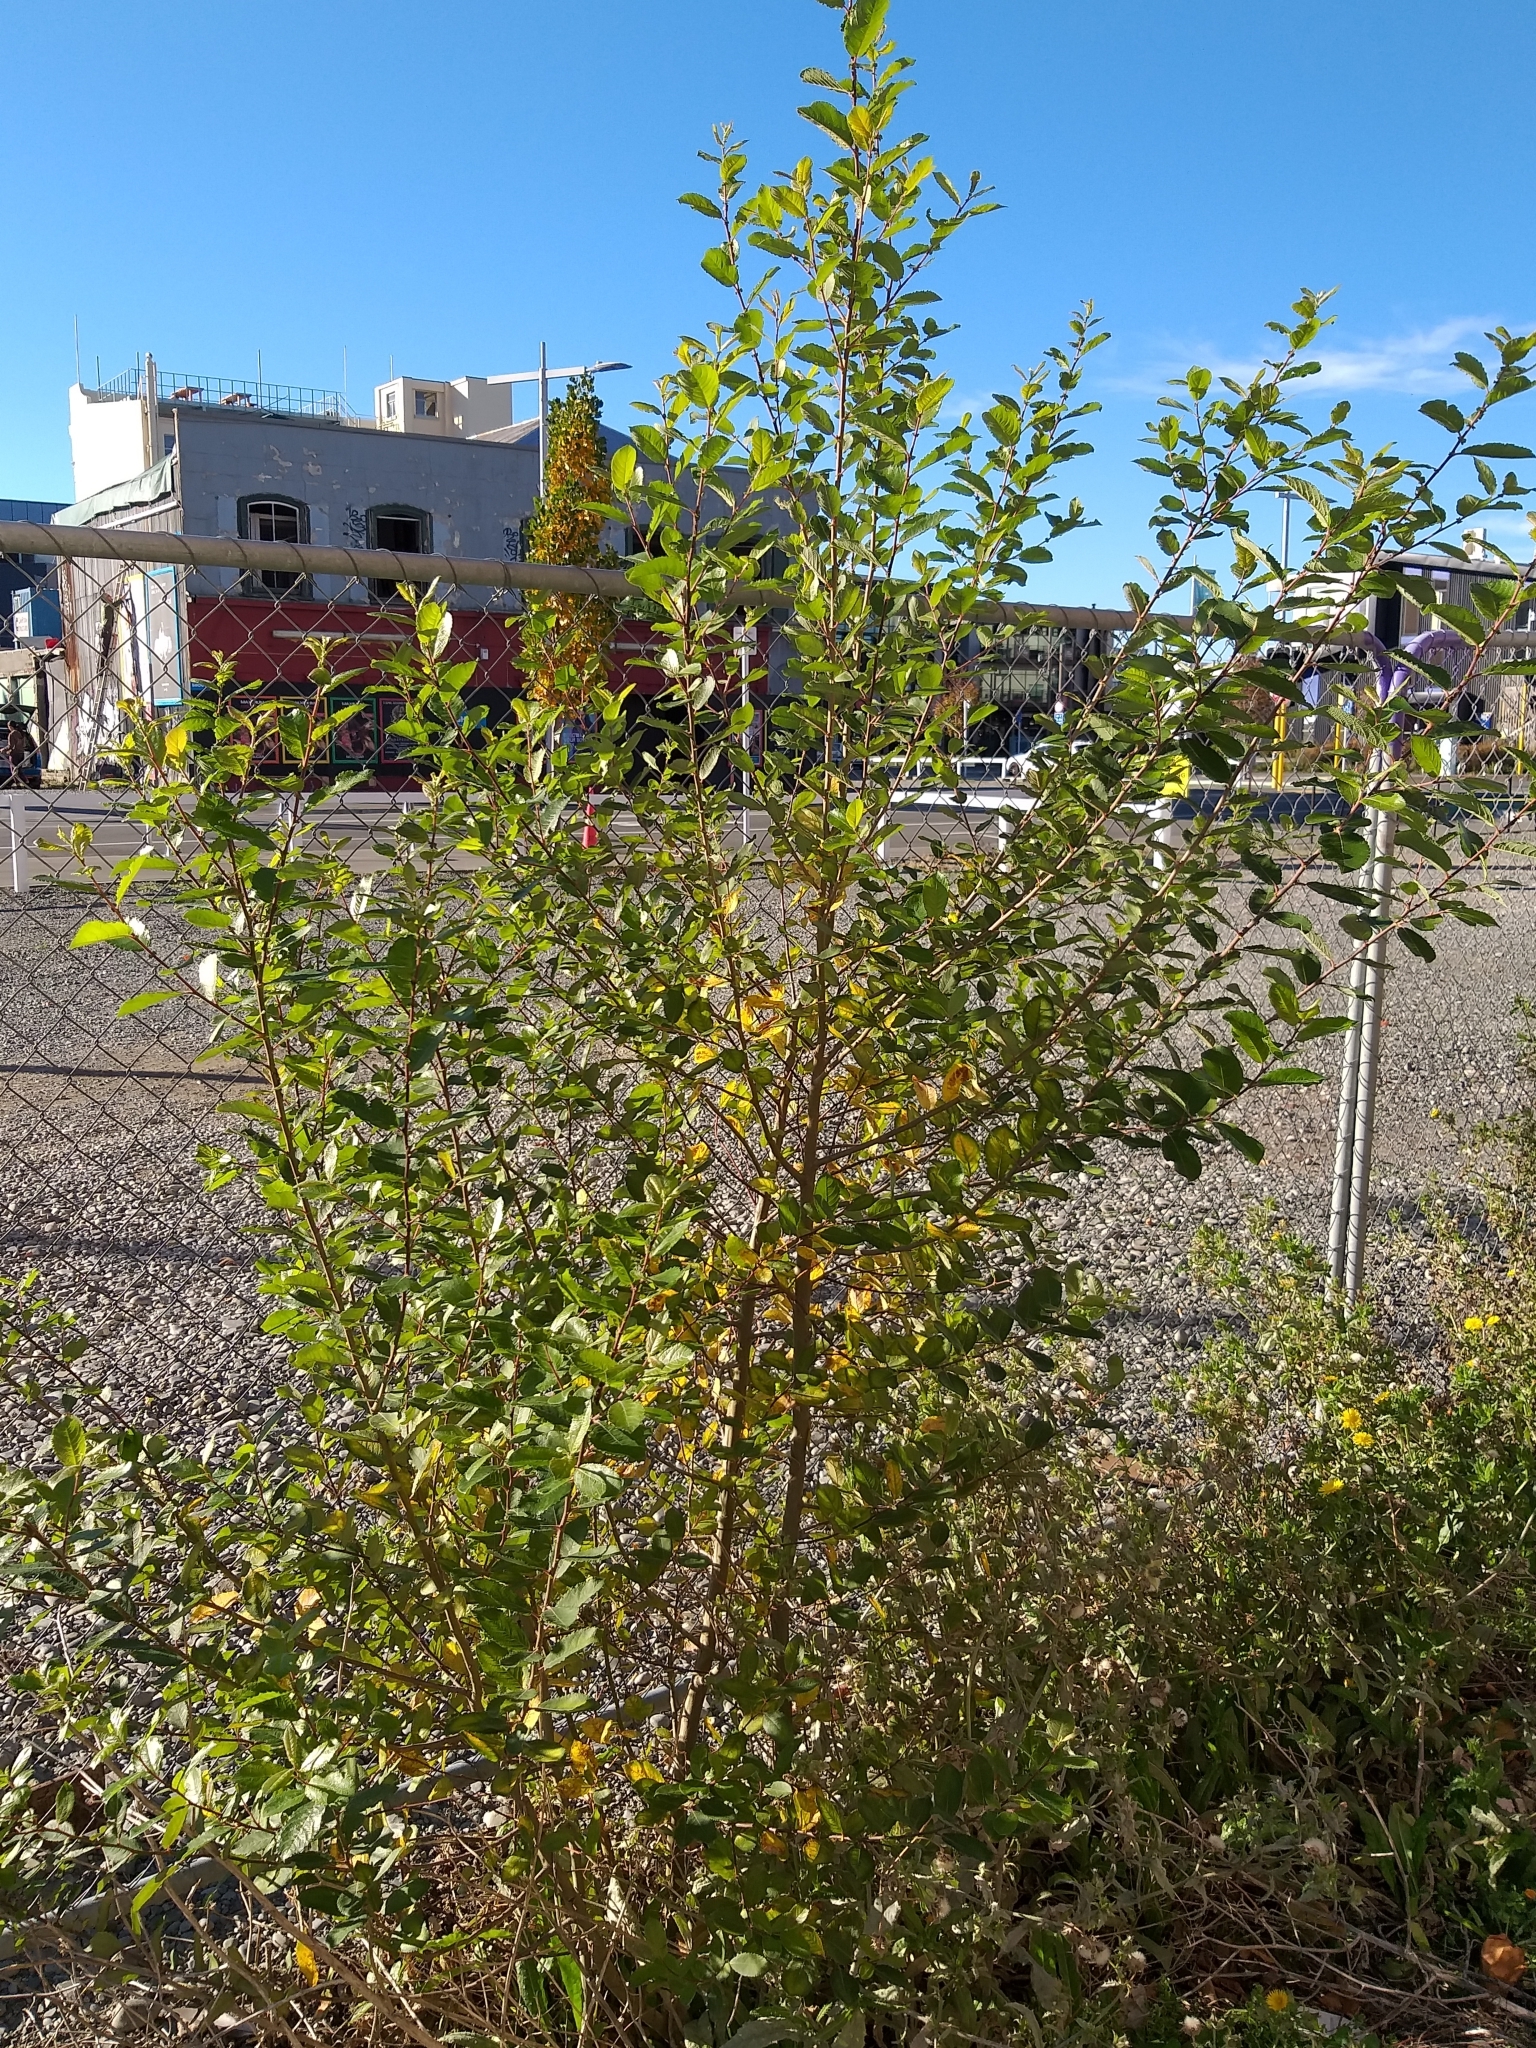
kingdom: Plantae
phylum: Tracheophyta
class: Magnoliopsida
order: Malpighiales
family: Salicaceae
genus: Salix
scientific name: Salix cinerea
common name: Common sallow
